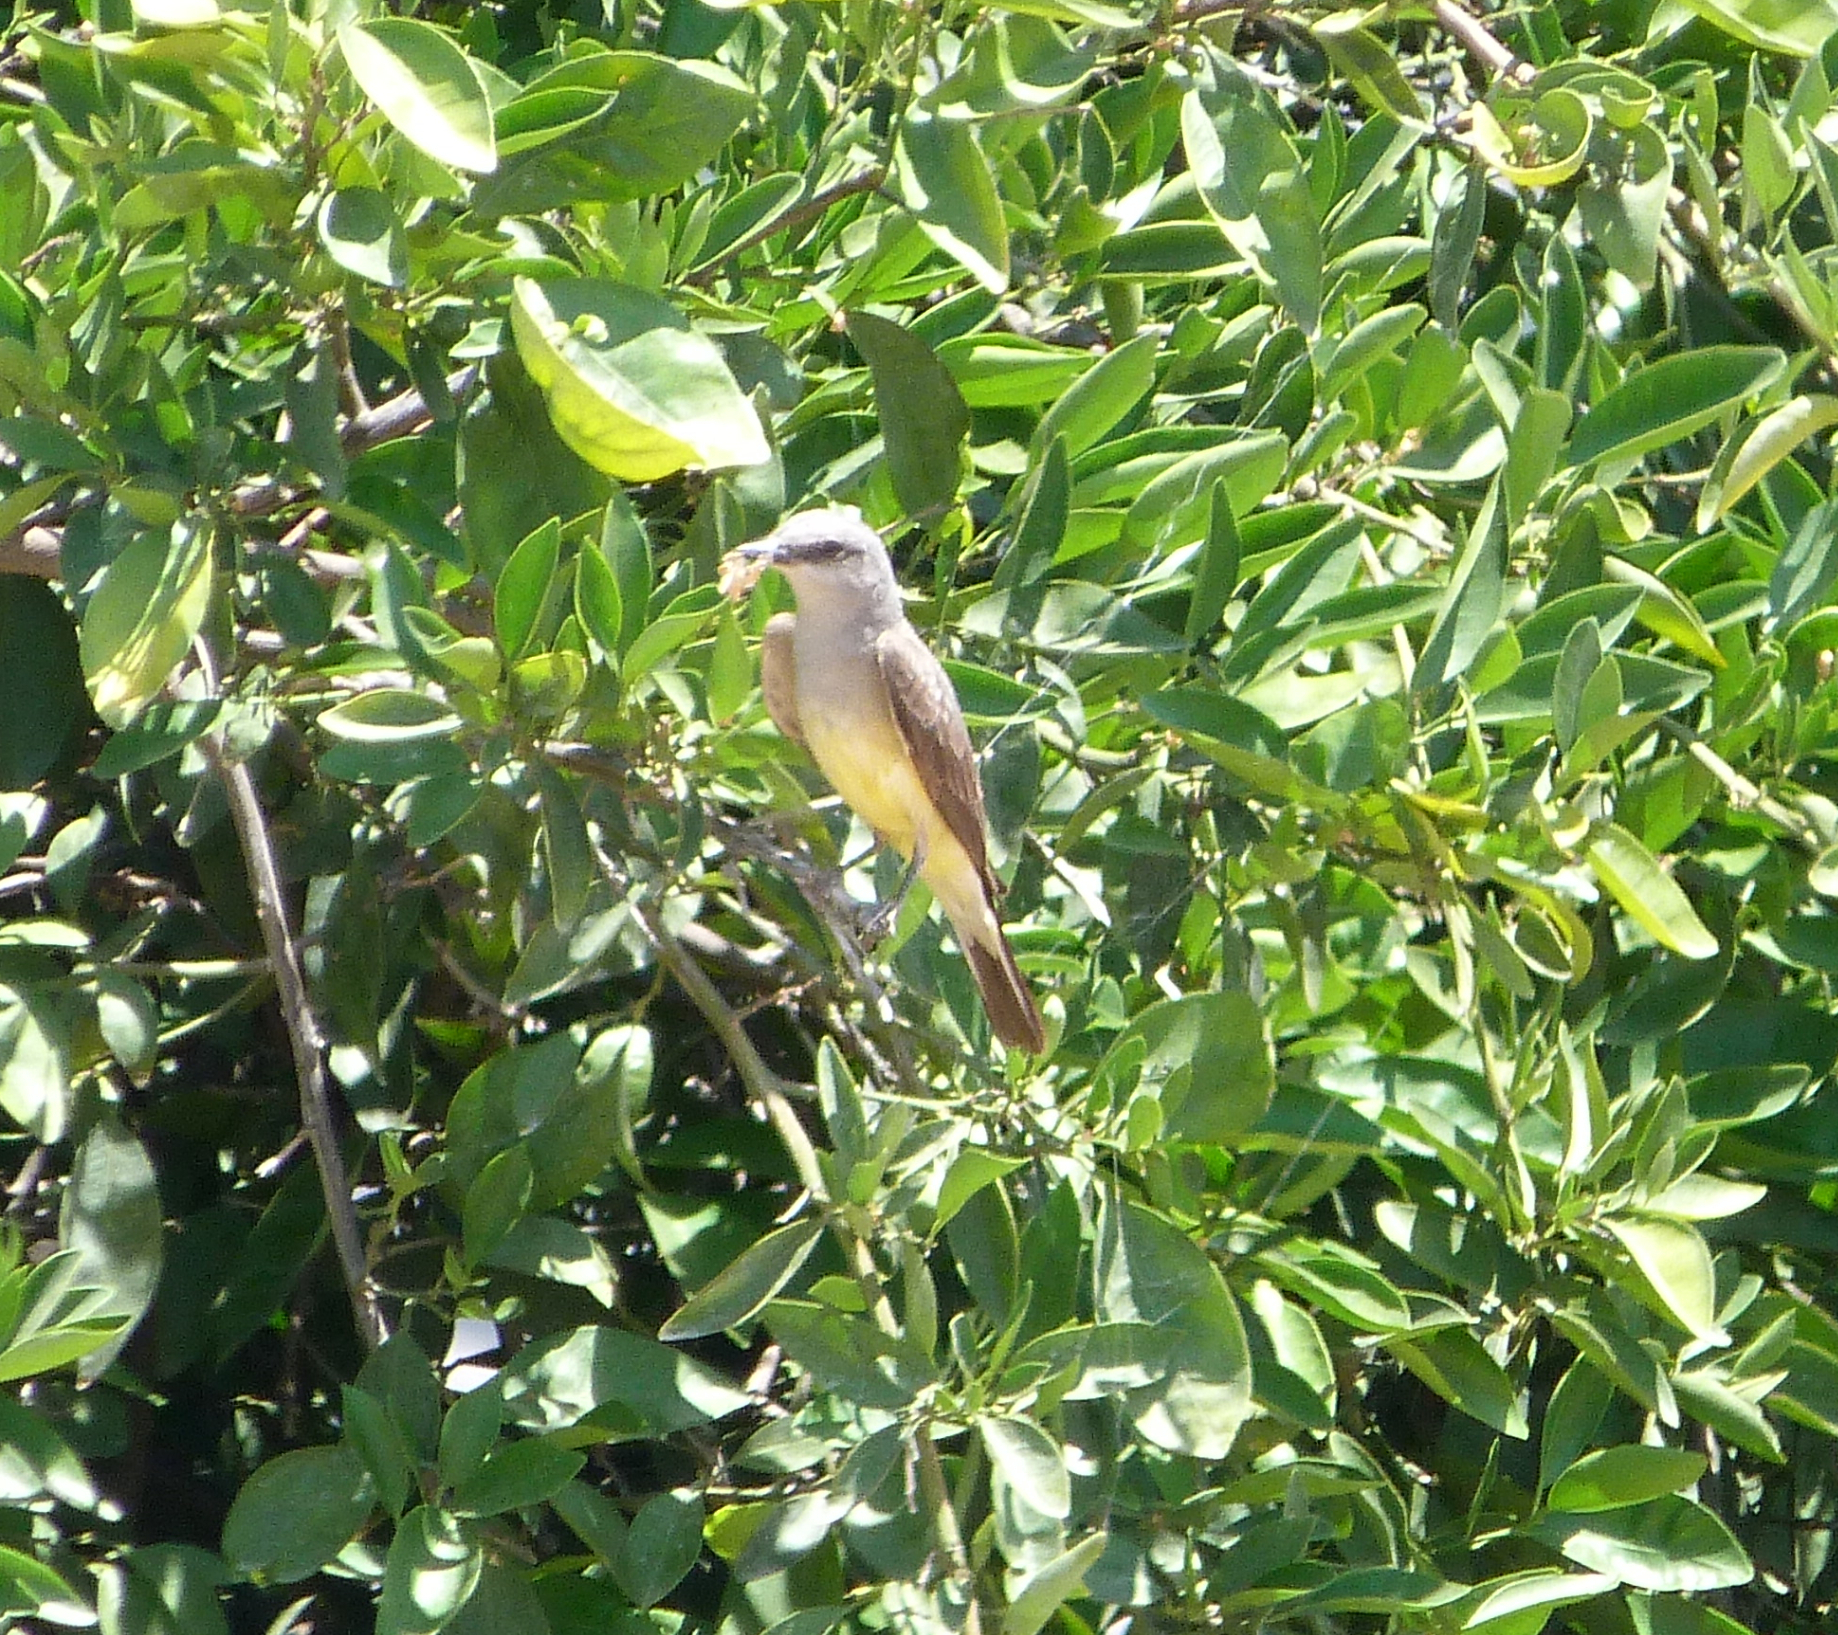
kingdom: Animalia
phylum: Chordata
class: Aves
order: Passeriformes
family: Tyrannidae
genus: Tyrannus
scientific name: Tyrannus verticalis
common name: Western kingbird
